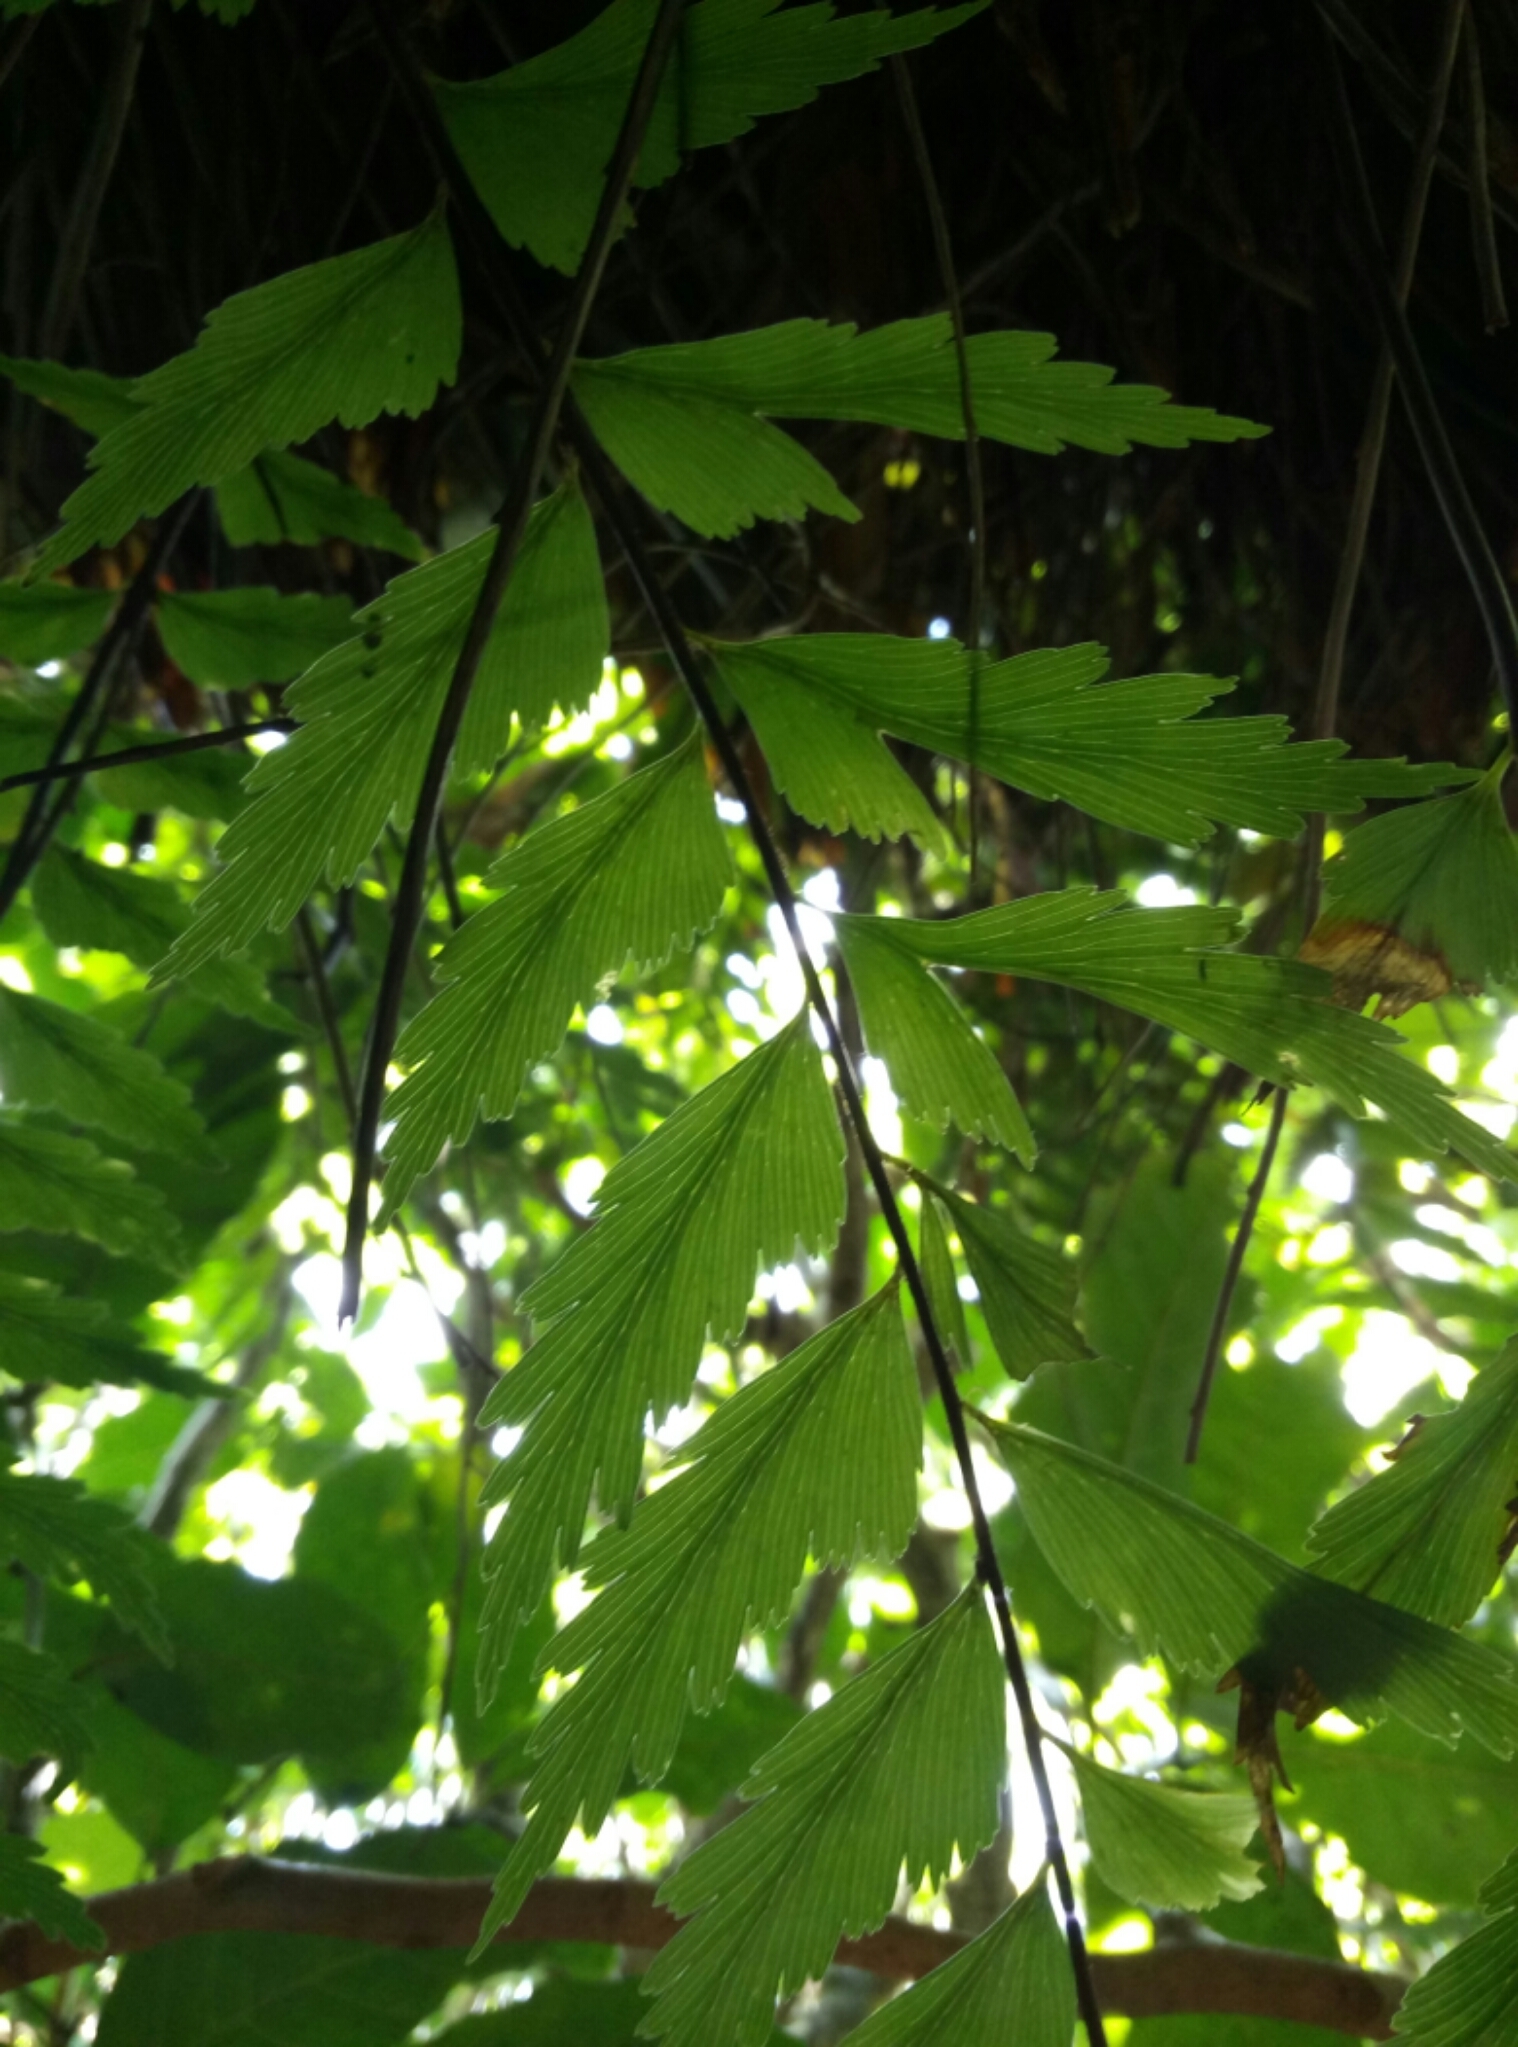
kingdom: Plantae
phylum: Tracheophyta
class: Polypodiopsida
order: Polypodiales
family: Aspleniaceae
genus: Asplenium
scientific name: Asplenium polyodon
